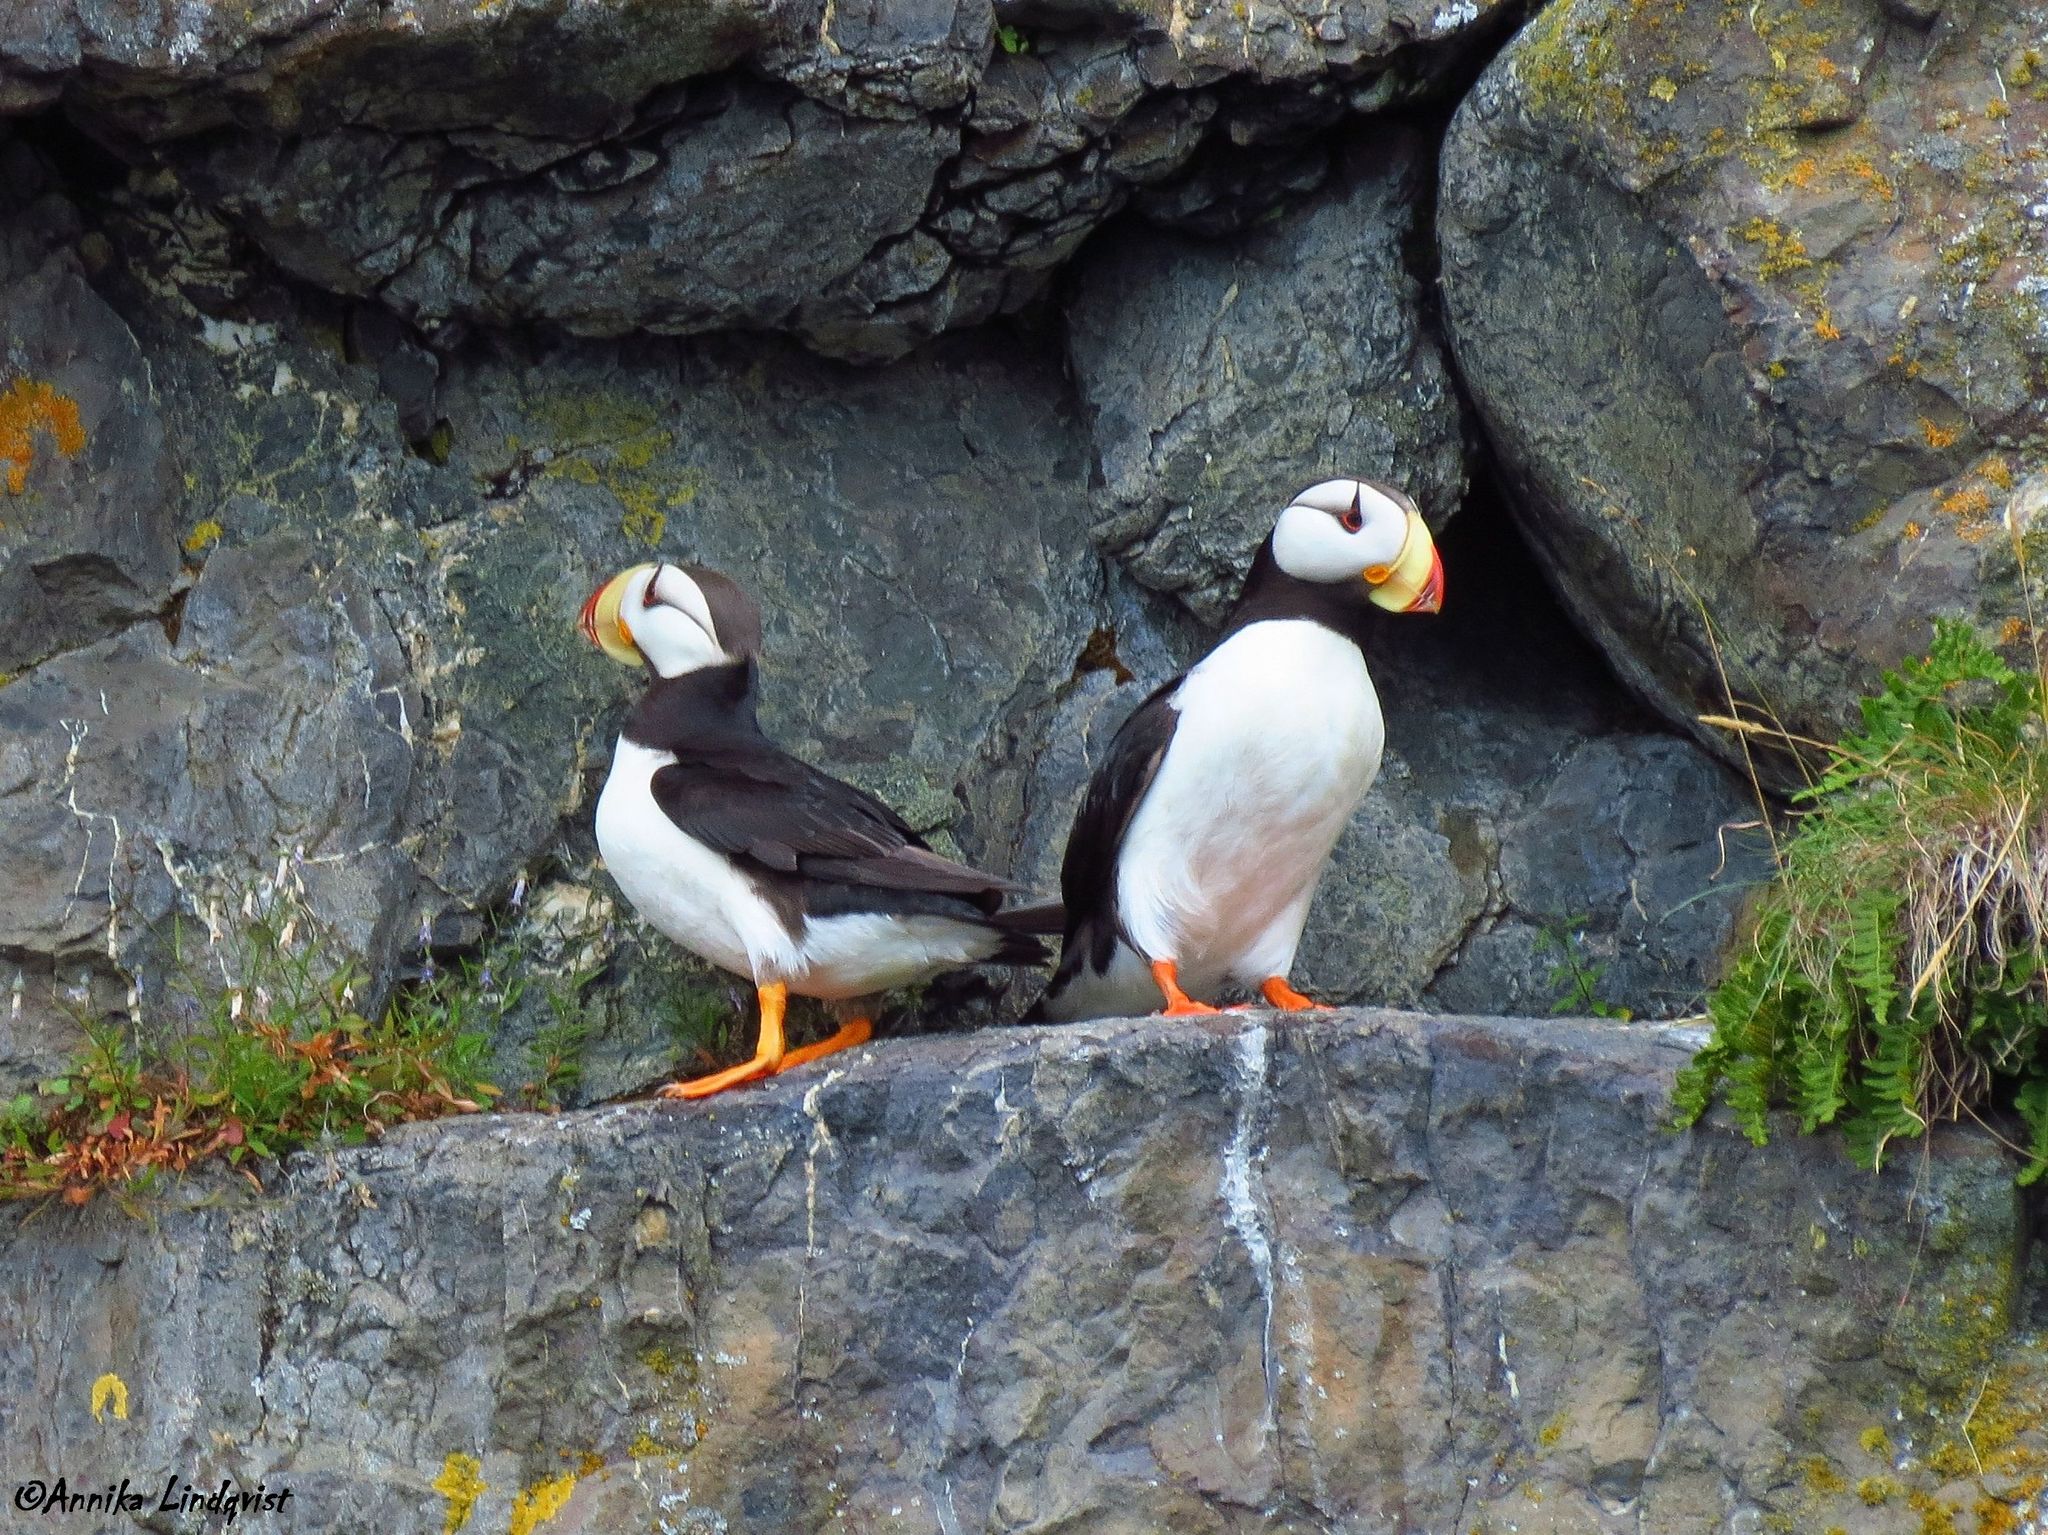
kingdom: Animalia
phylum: Chordata
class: Aves
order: Charadriiformes
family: Alcidae
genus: Fratercula
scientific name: Fratercula corniculata
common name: Horned puffin
